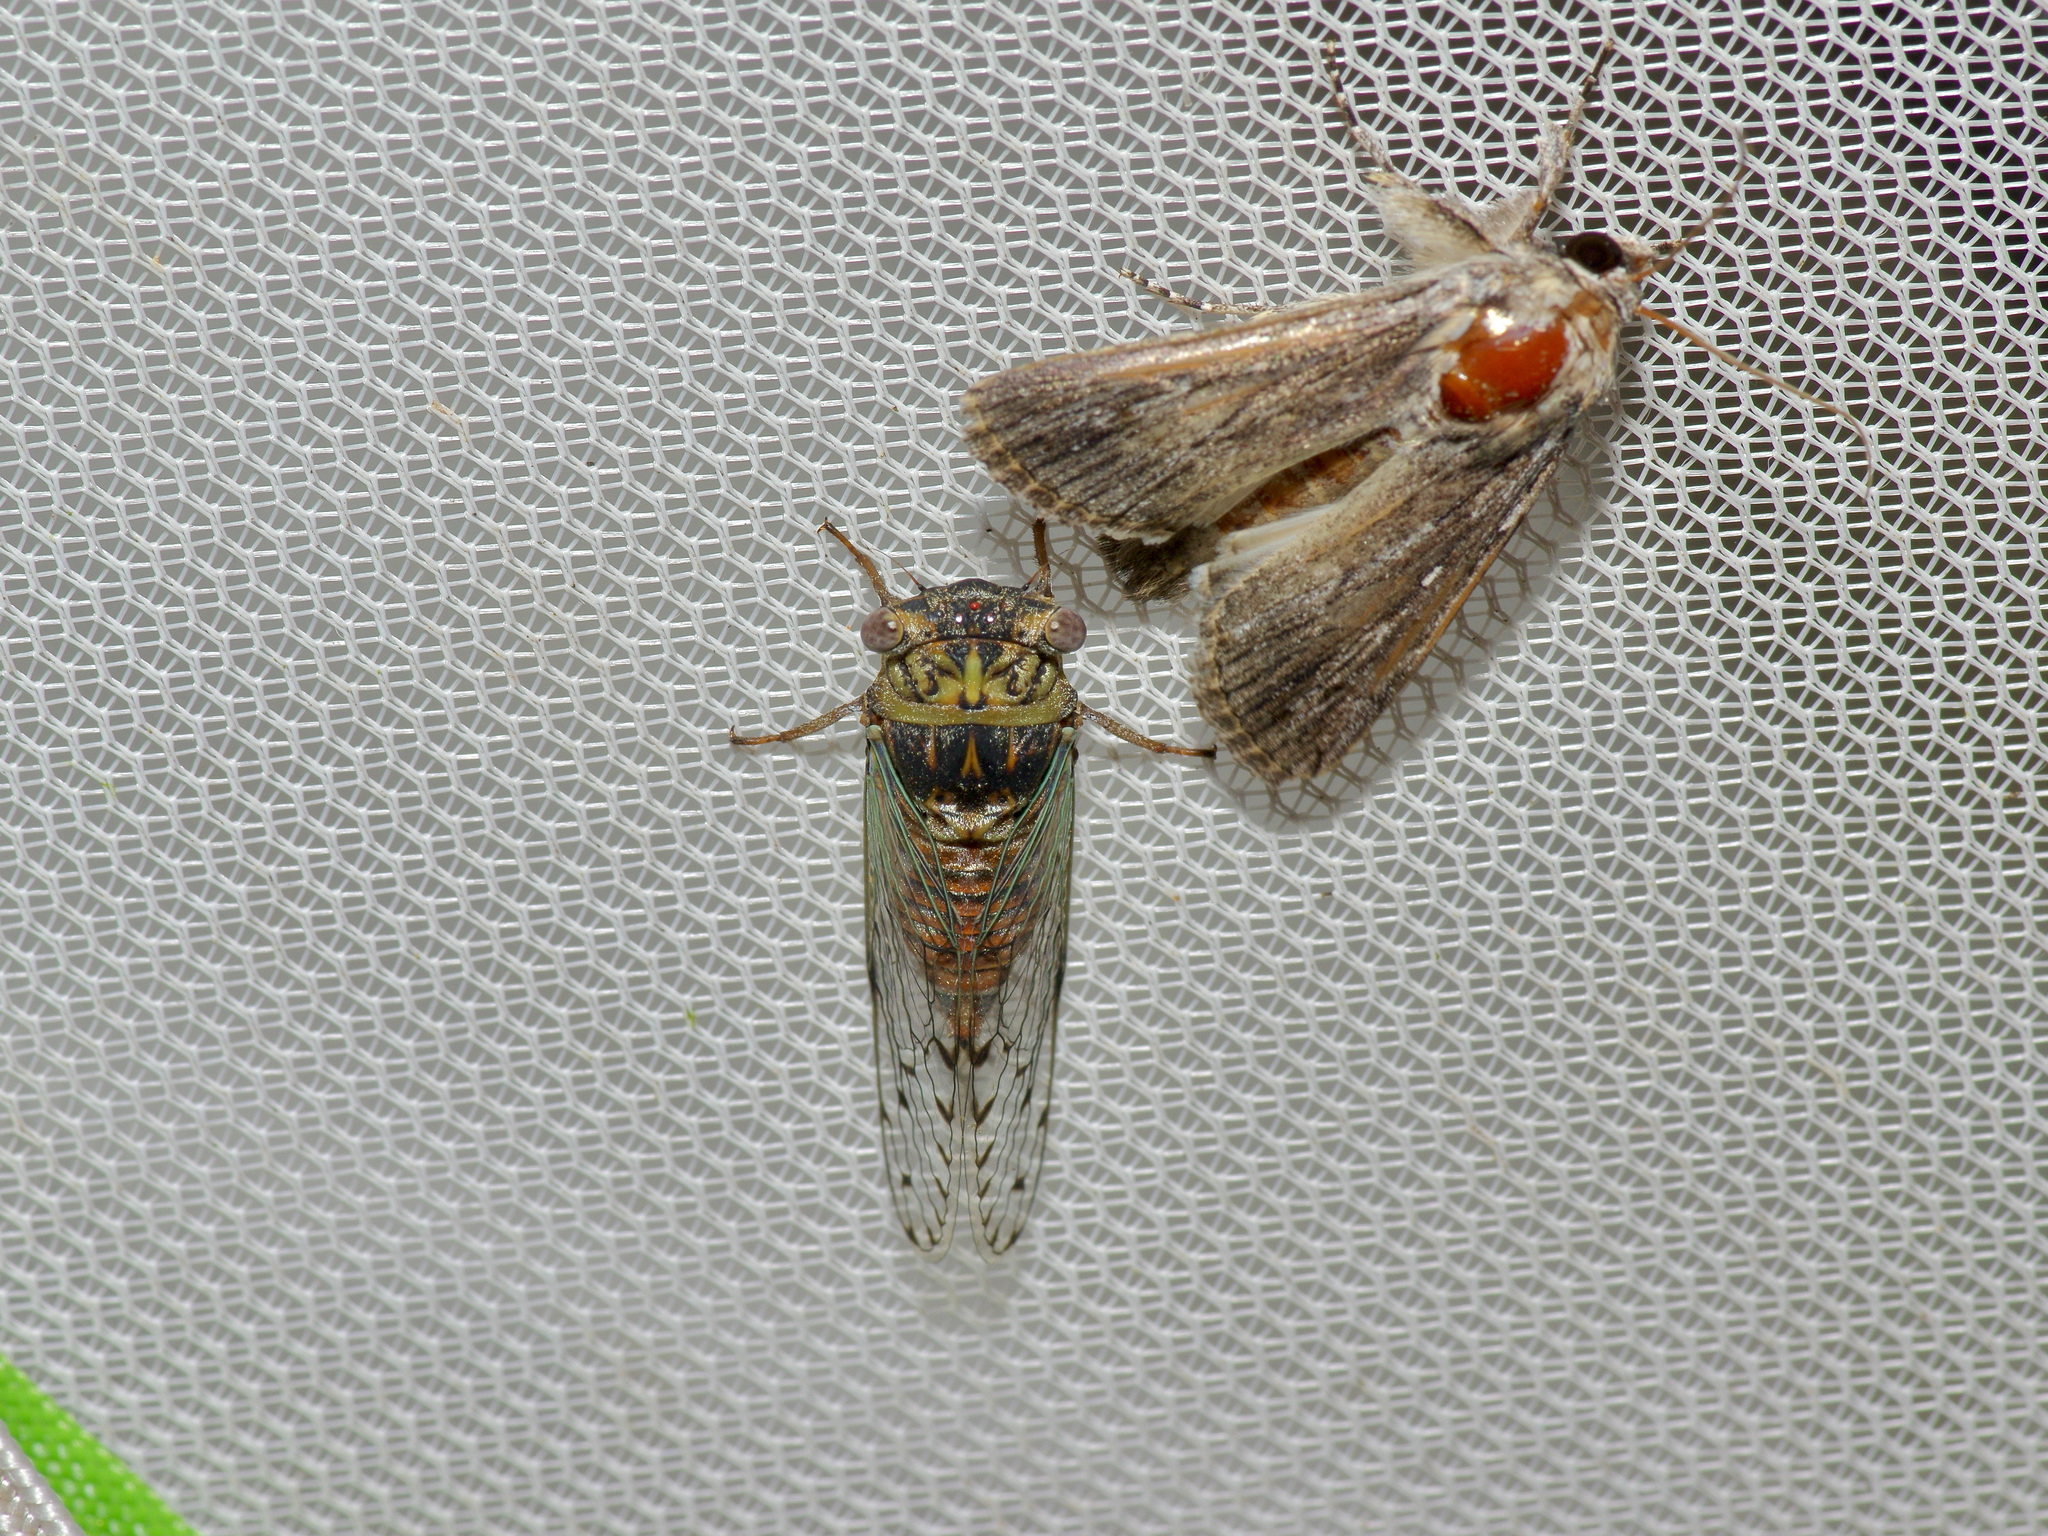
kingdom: Animalia
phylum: Arthropoda
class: Insecta
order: Hemiptera
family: Cicadidae
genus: Pacarina
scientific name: Pacarina puella
